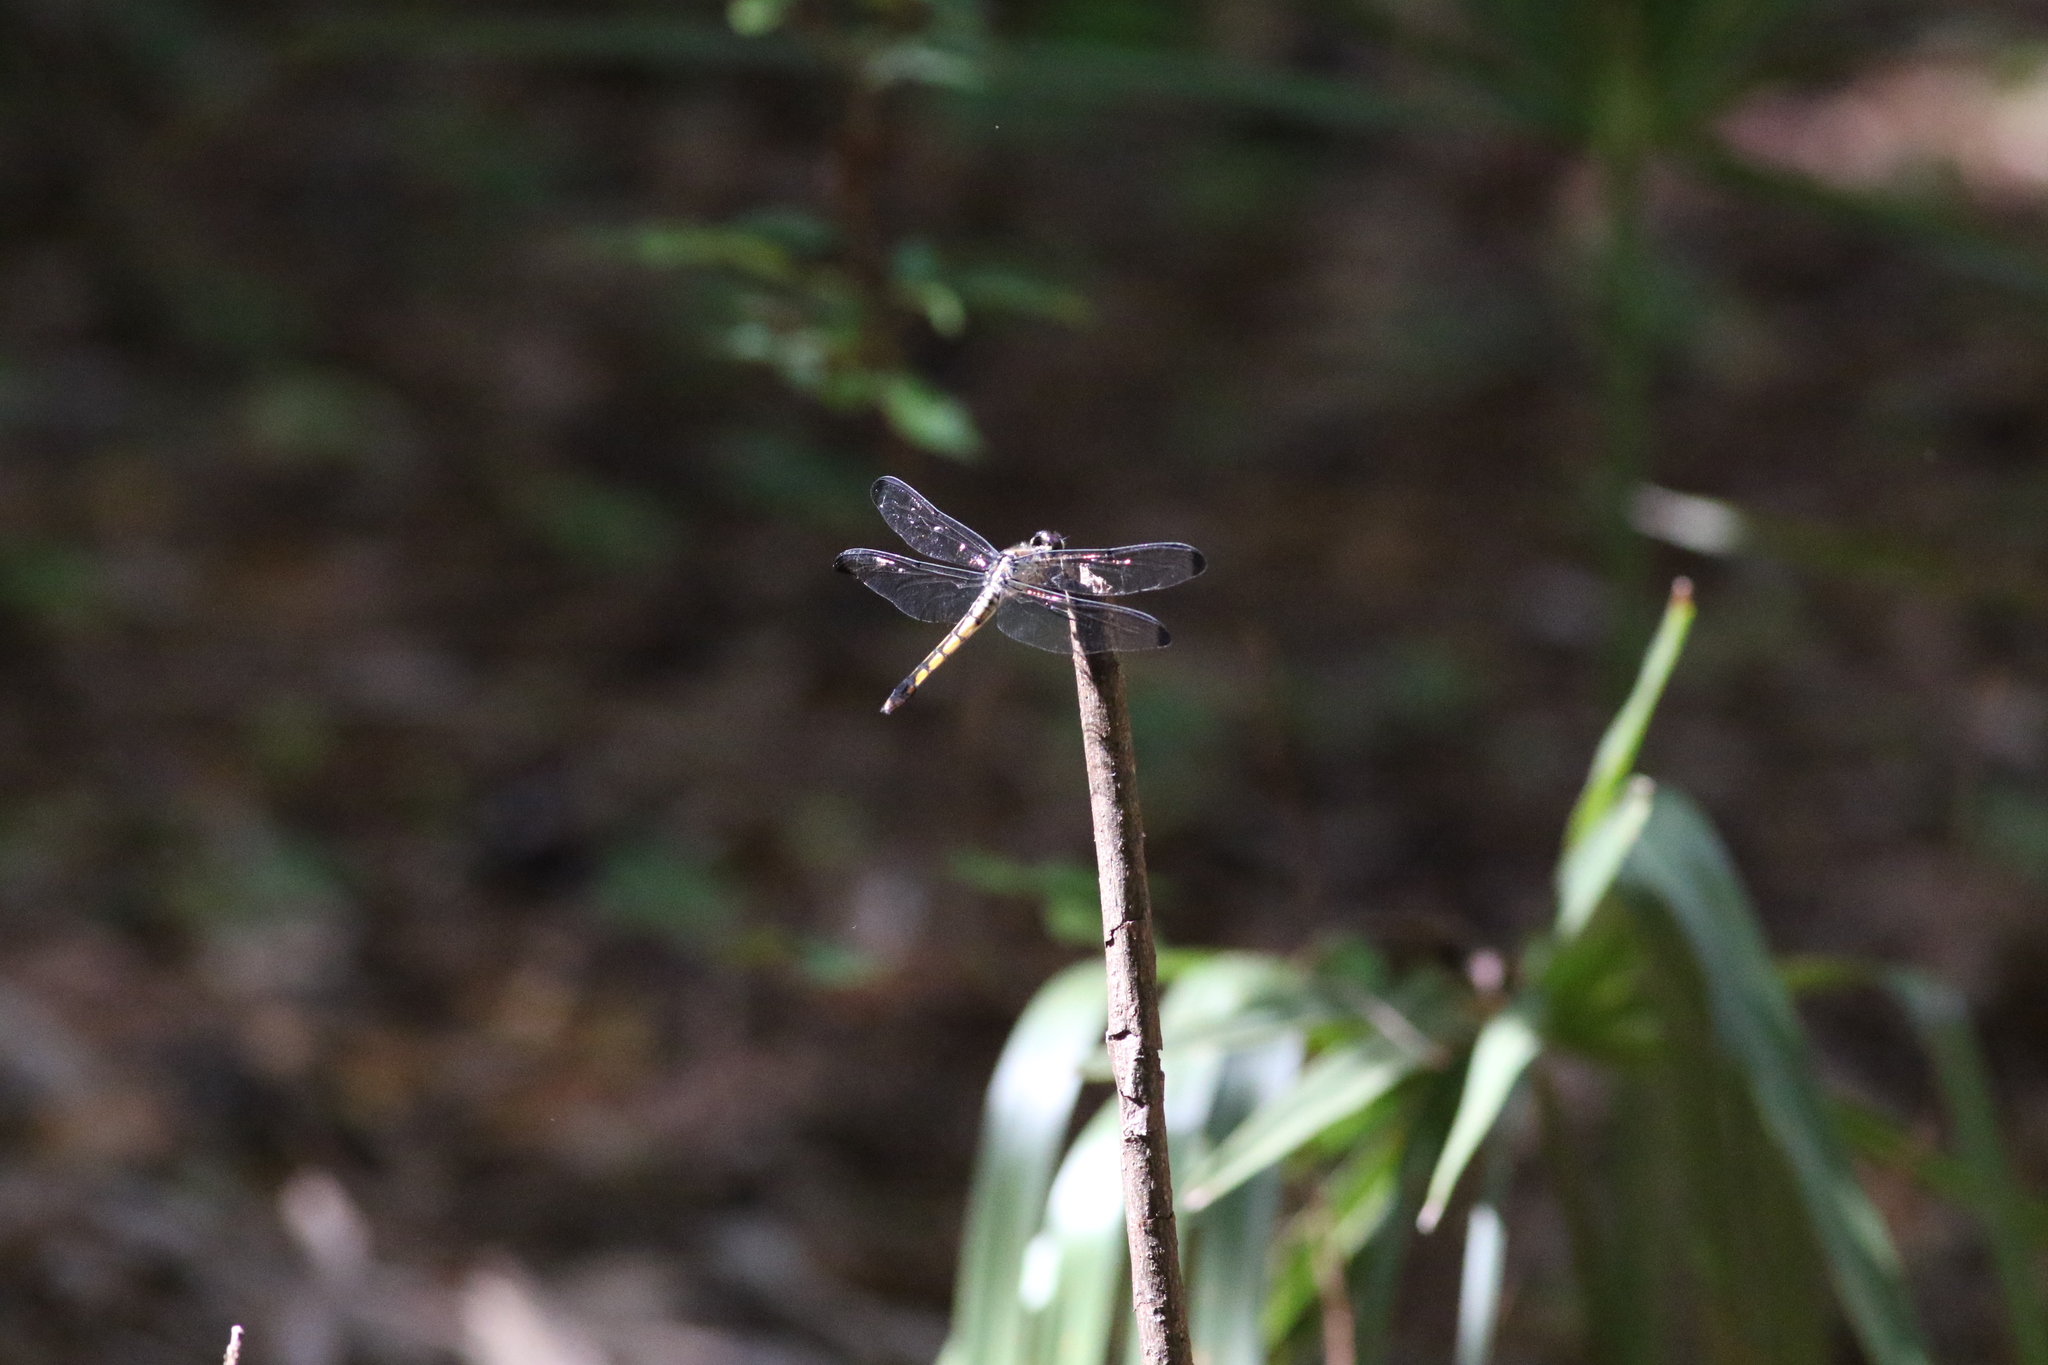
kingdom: Animalia
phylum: Arthropoda
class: Insecta
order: Odonata
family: Libellulidae
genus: Libellula
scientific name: Libellula vibrans
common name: Great blue skimmer
